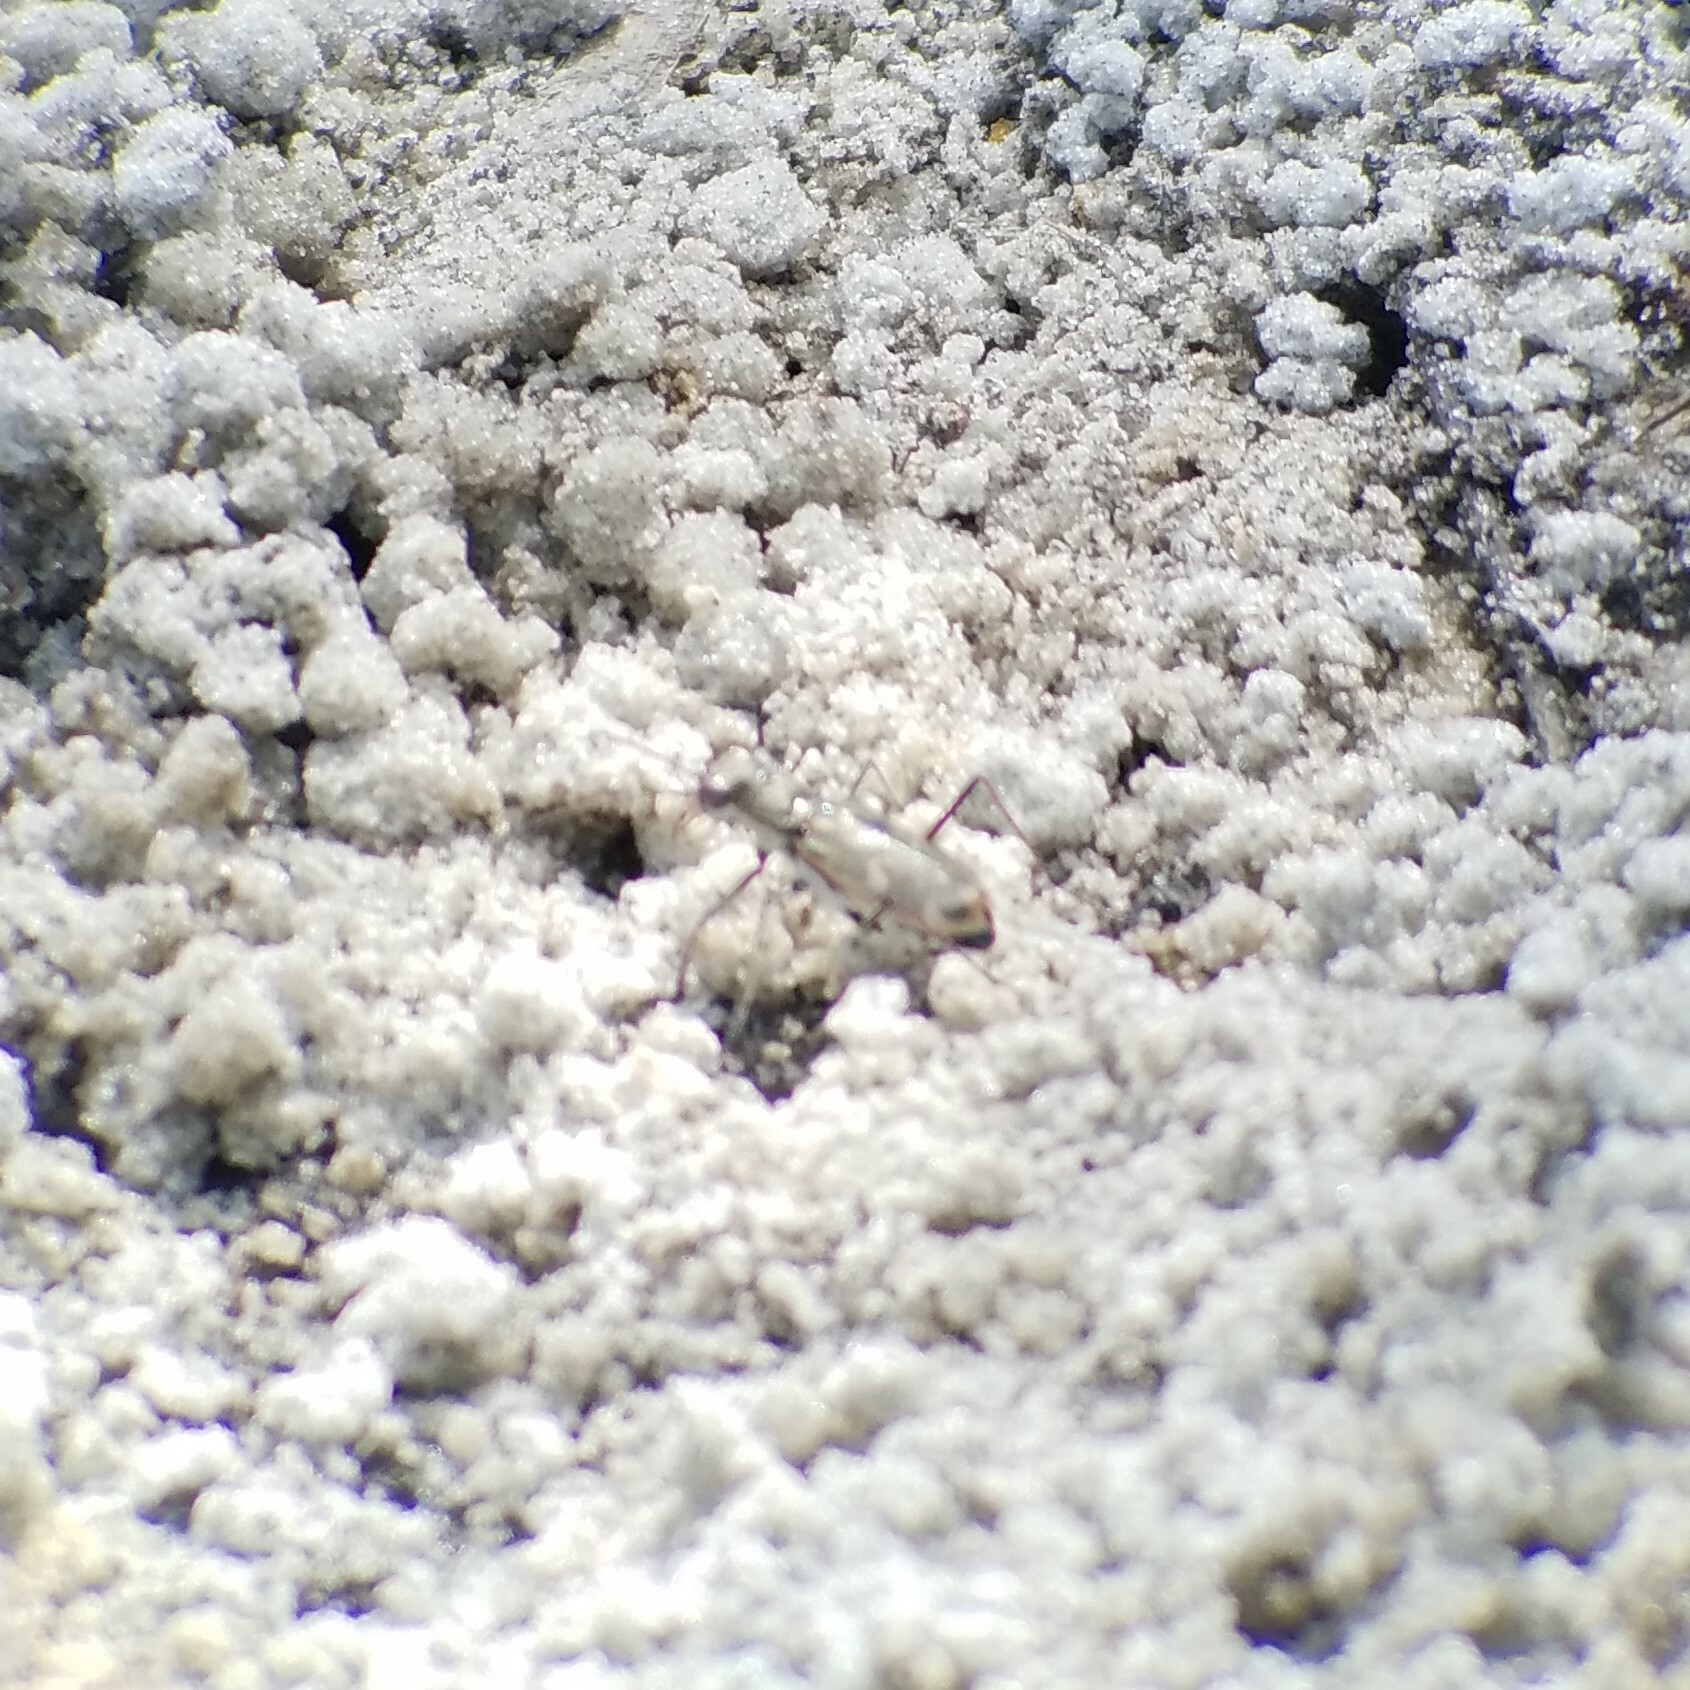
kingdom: Animalia
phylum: Arthropoda
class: Insecta
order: Coleoptera
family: Carabidae
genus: Ellipsoptera
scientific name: Ellipsoptera marginata
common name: Margined tiger beetle
